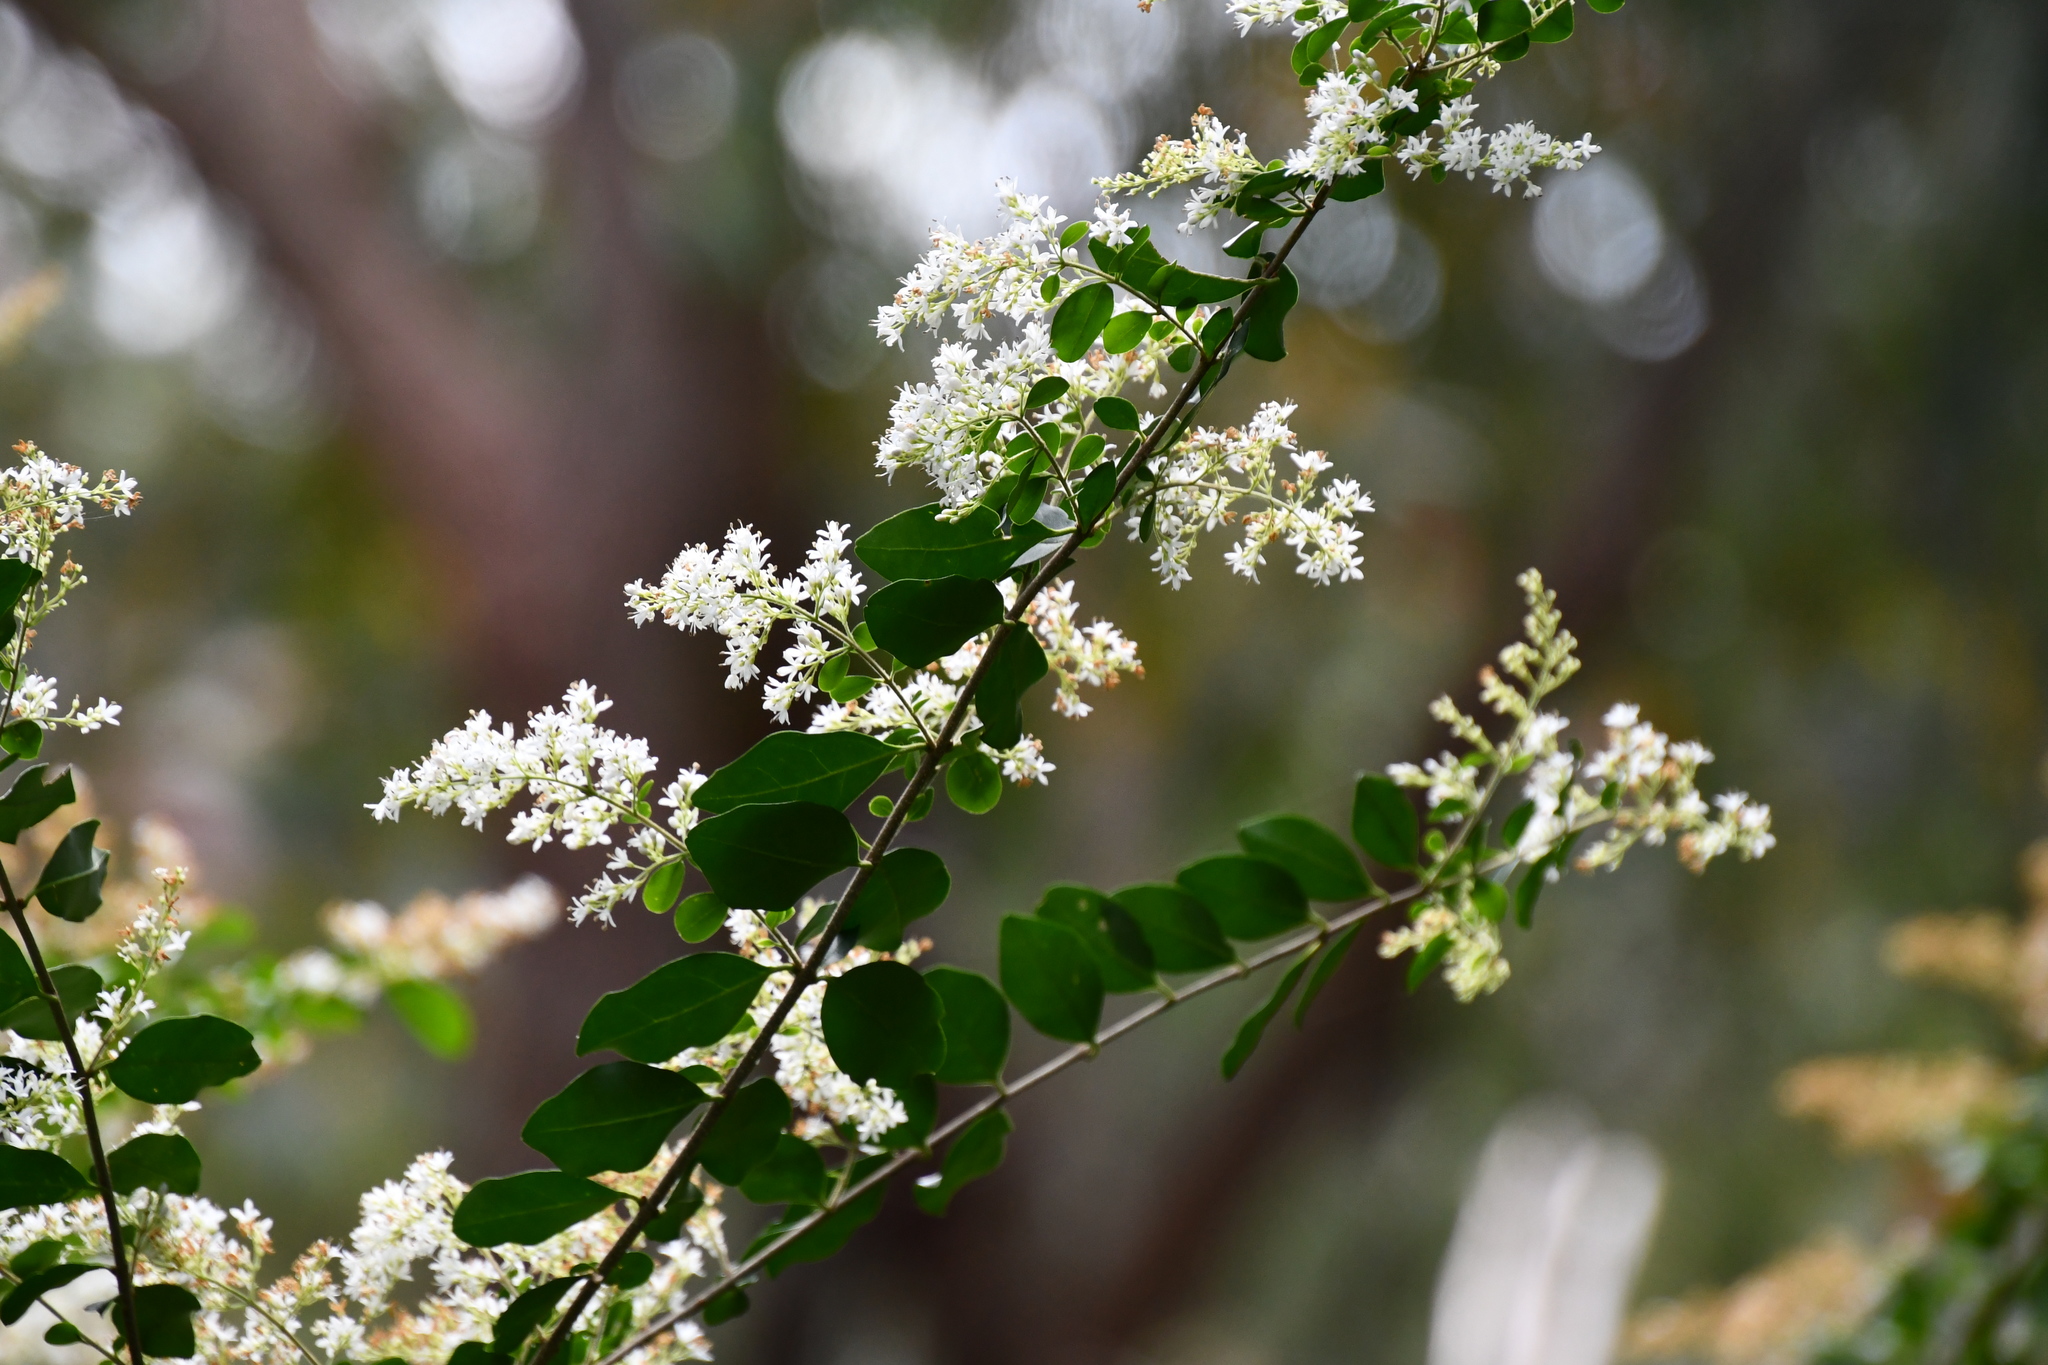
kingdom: Plantae
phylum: Tracheophyta
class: Magnoliopsida
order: Lamiales
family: Oleaceae
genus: Ligustrum
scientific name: Ligustrum sinense
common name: Chinese privet
